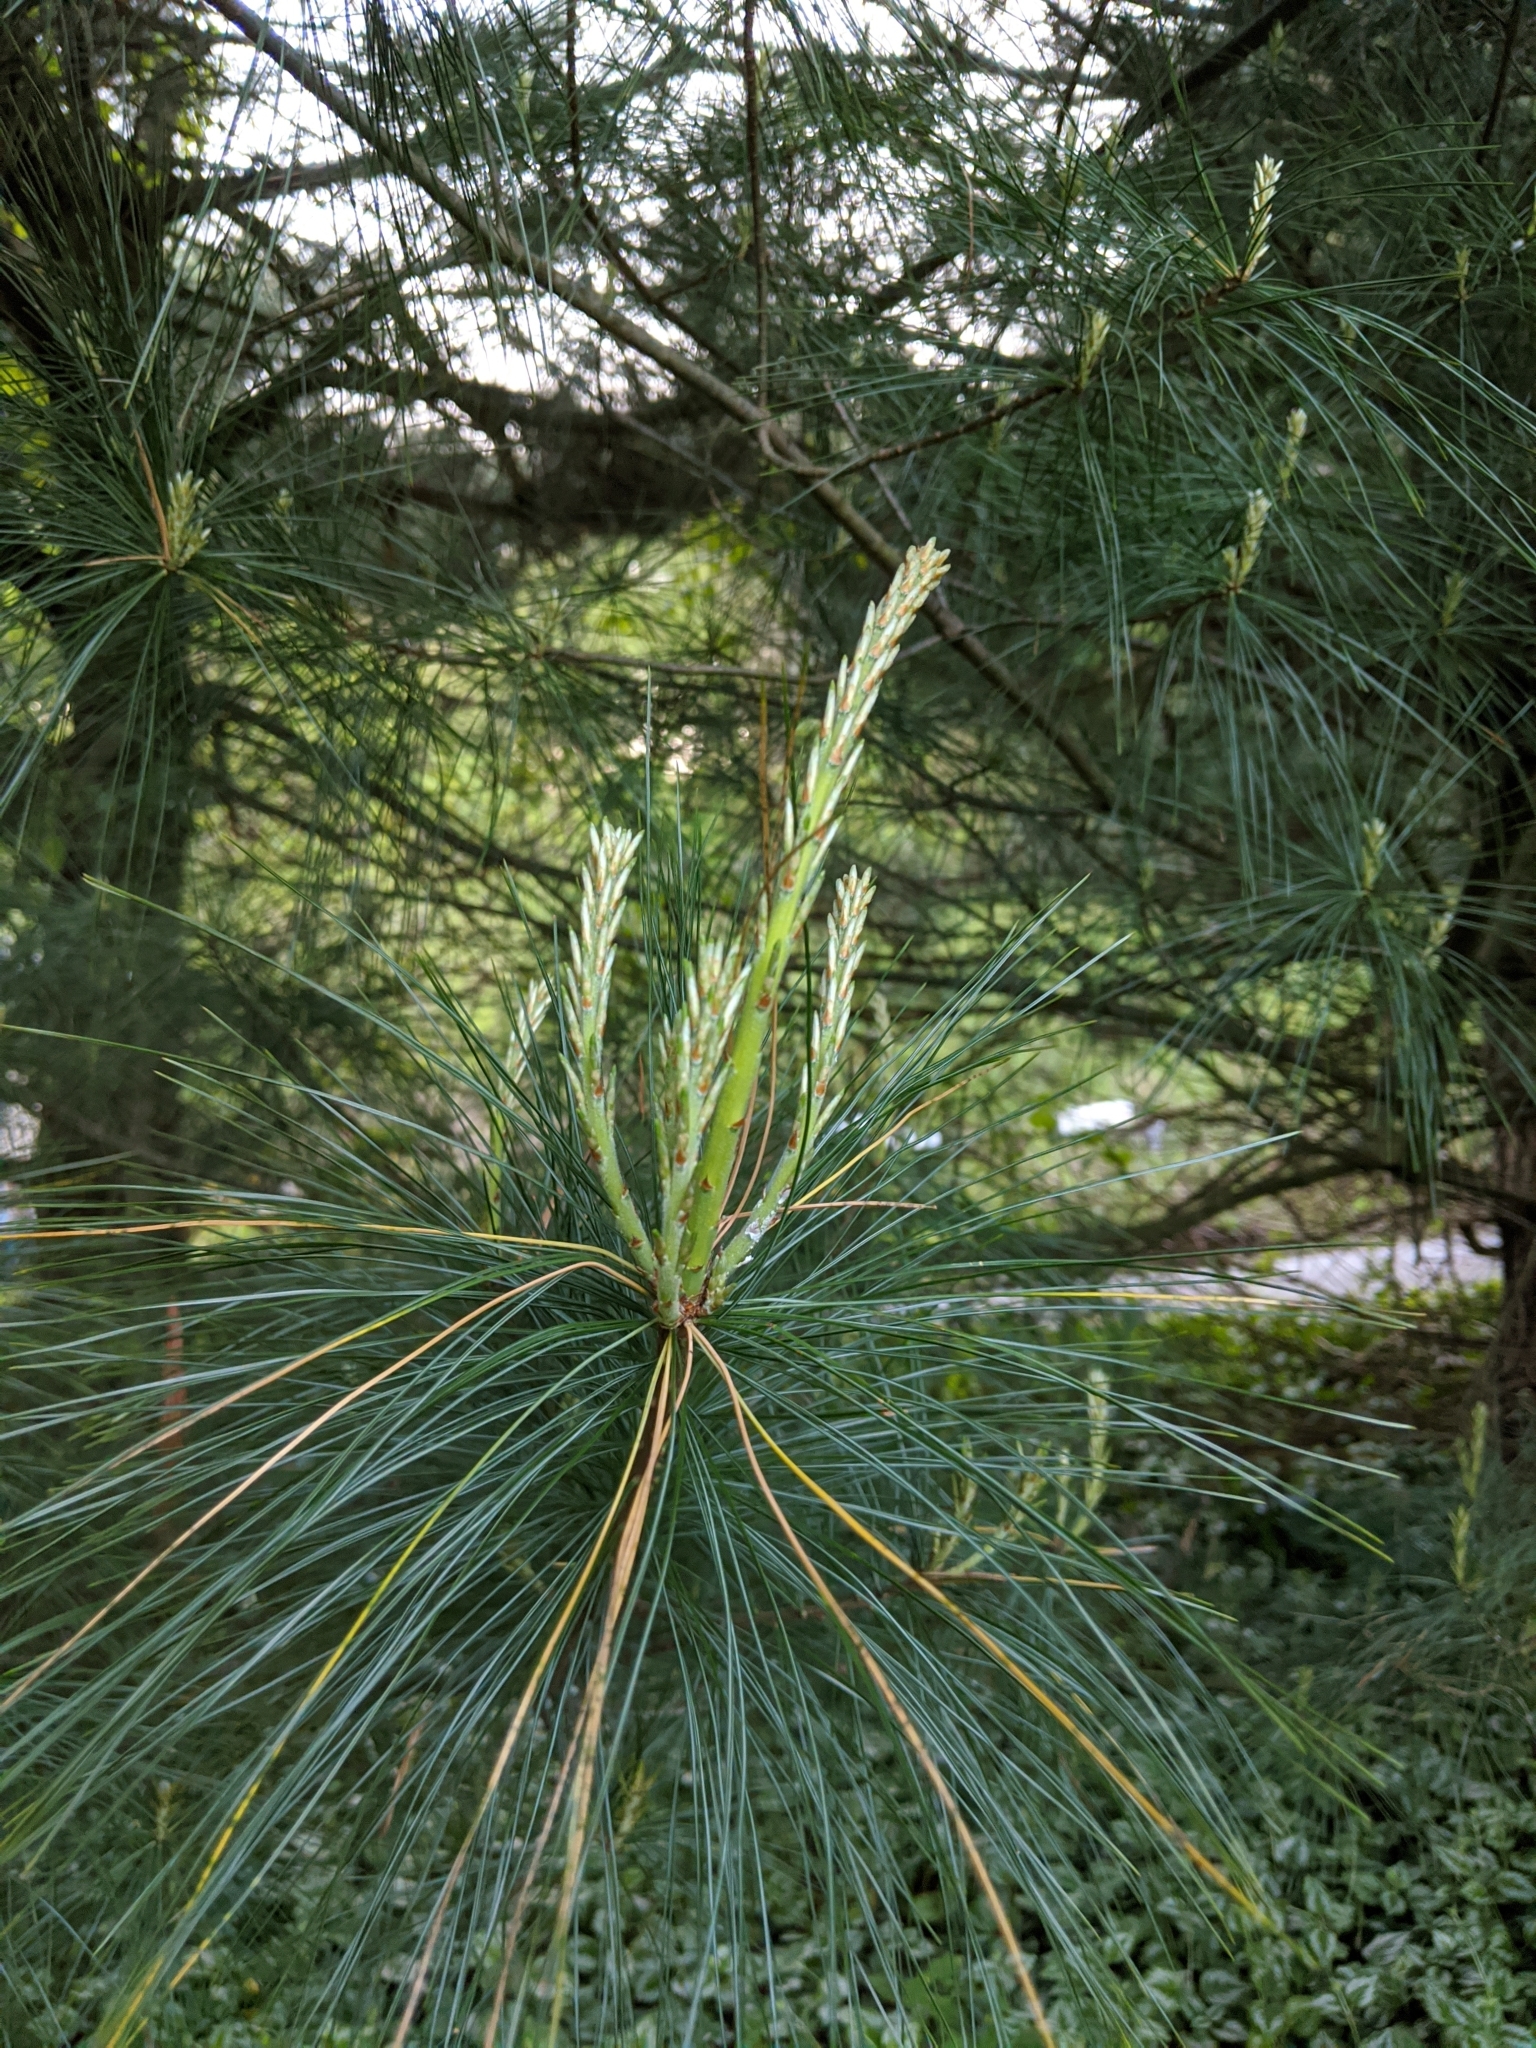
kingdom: Plantae
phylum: Tracheophyta
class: Pinopsida
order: Pinales
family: Pinaceae
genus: Pinus
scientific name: Pinus strobus
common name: Weymouth pine
